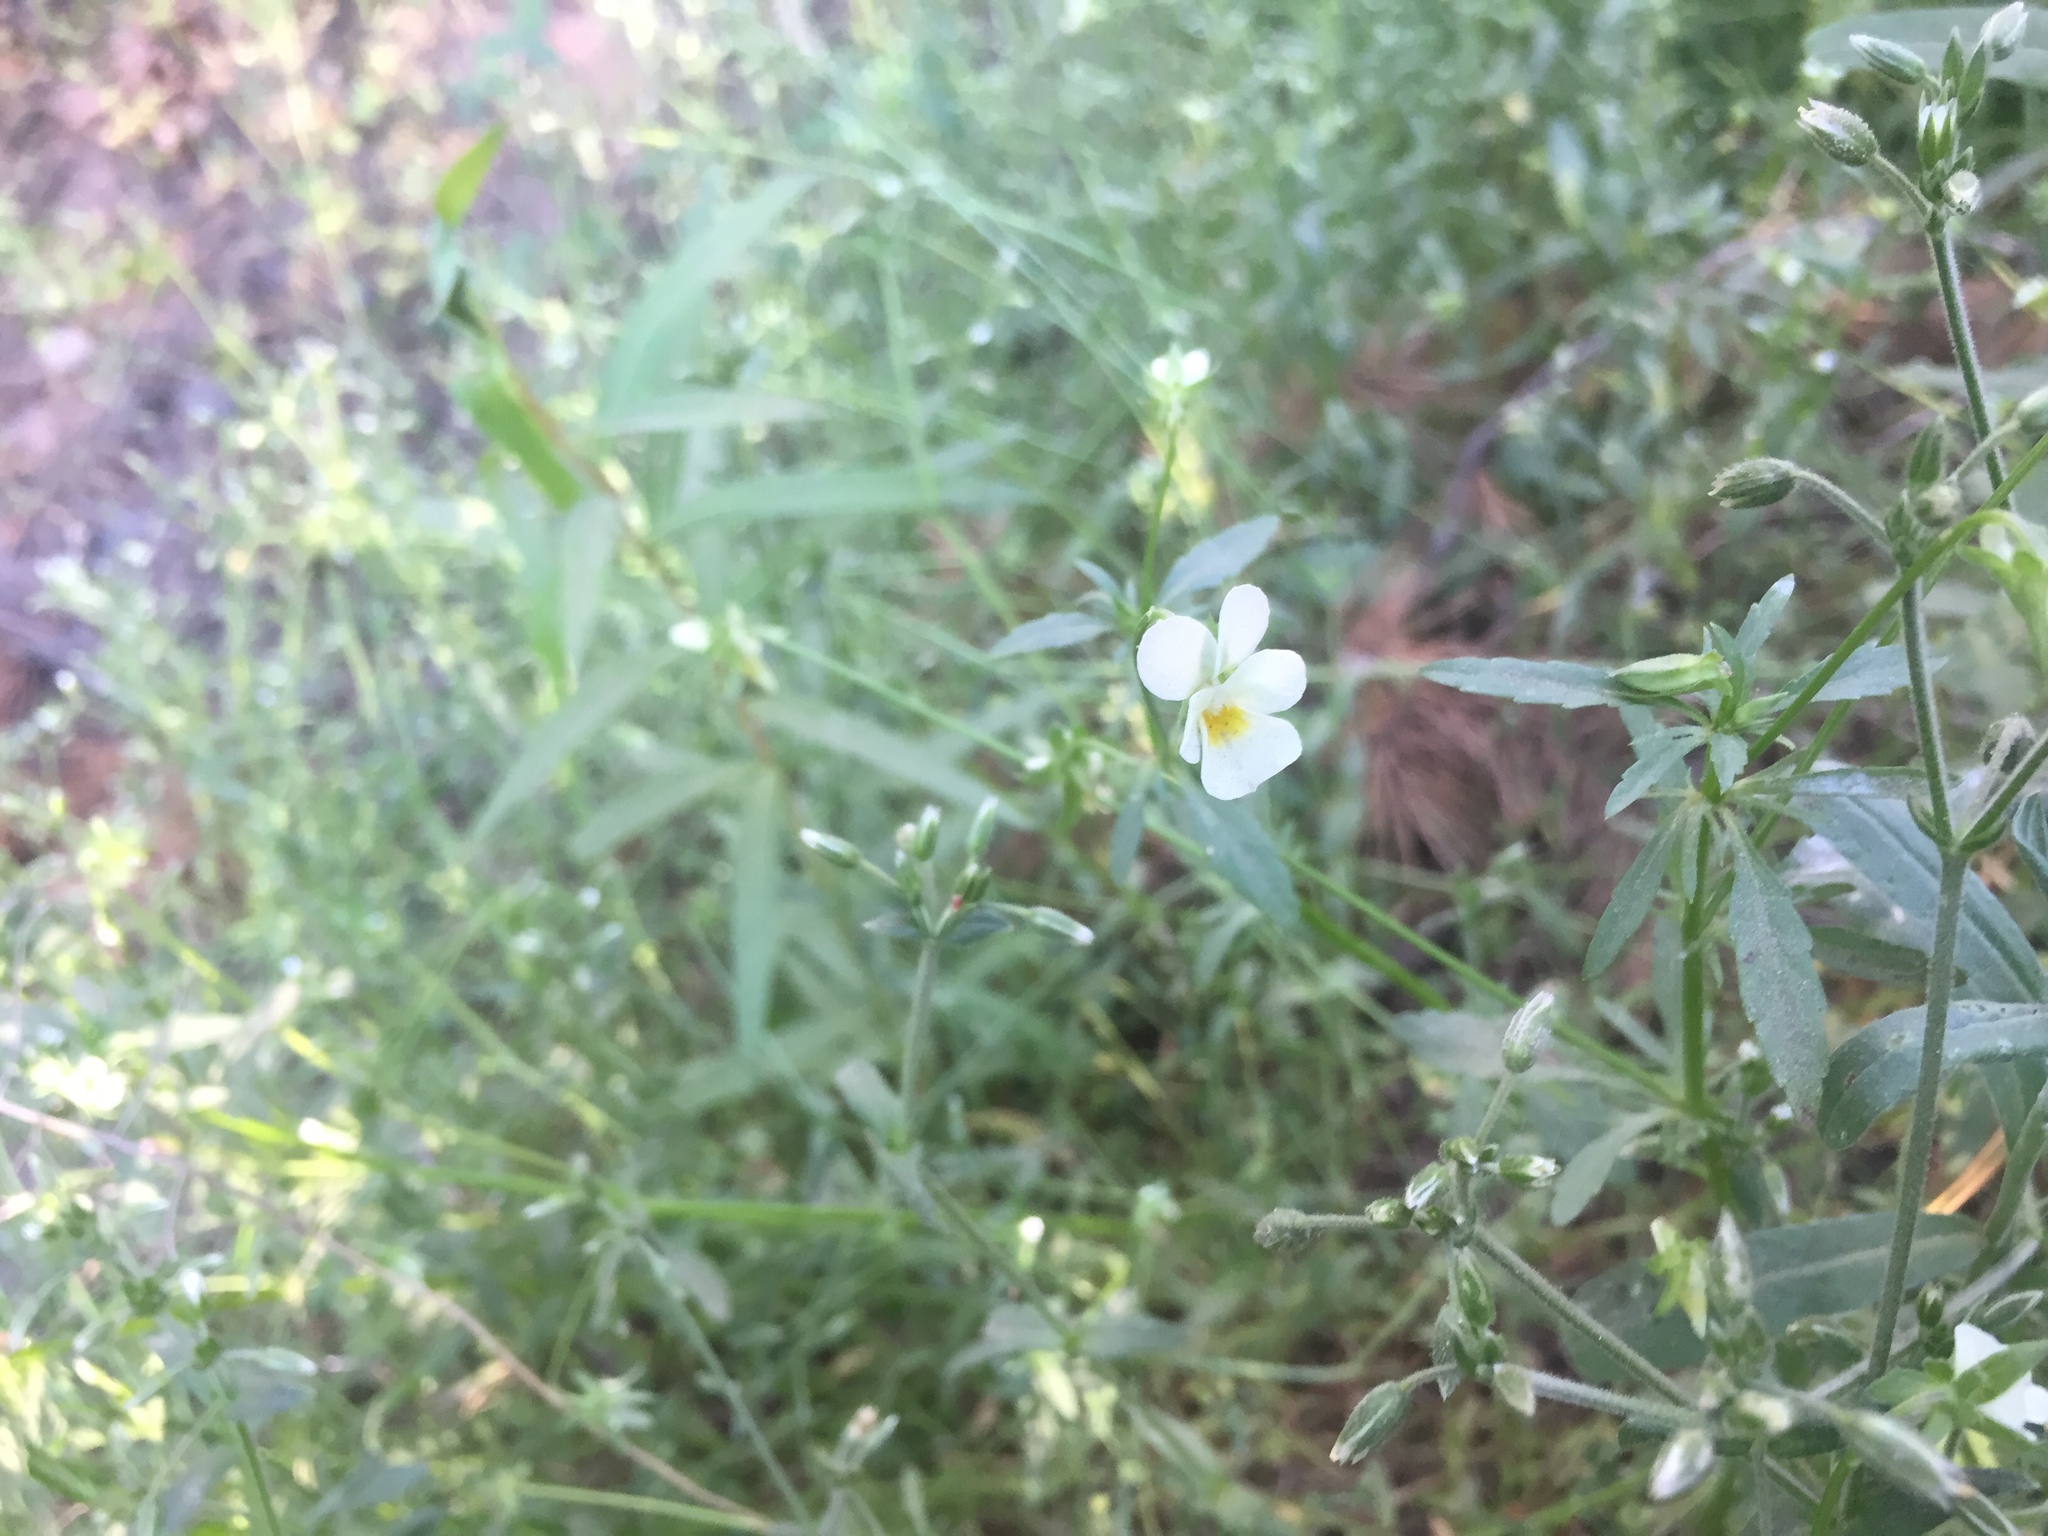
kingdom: Plantae
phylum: Tracheophyta
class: Magnoliopsida
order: Malpighiales
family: Violaceae
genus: Viola
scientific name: Viola arvensis
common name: Field pansy
